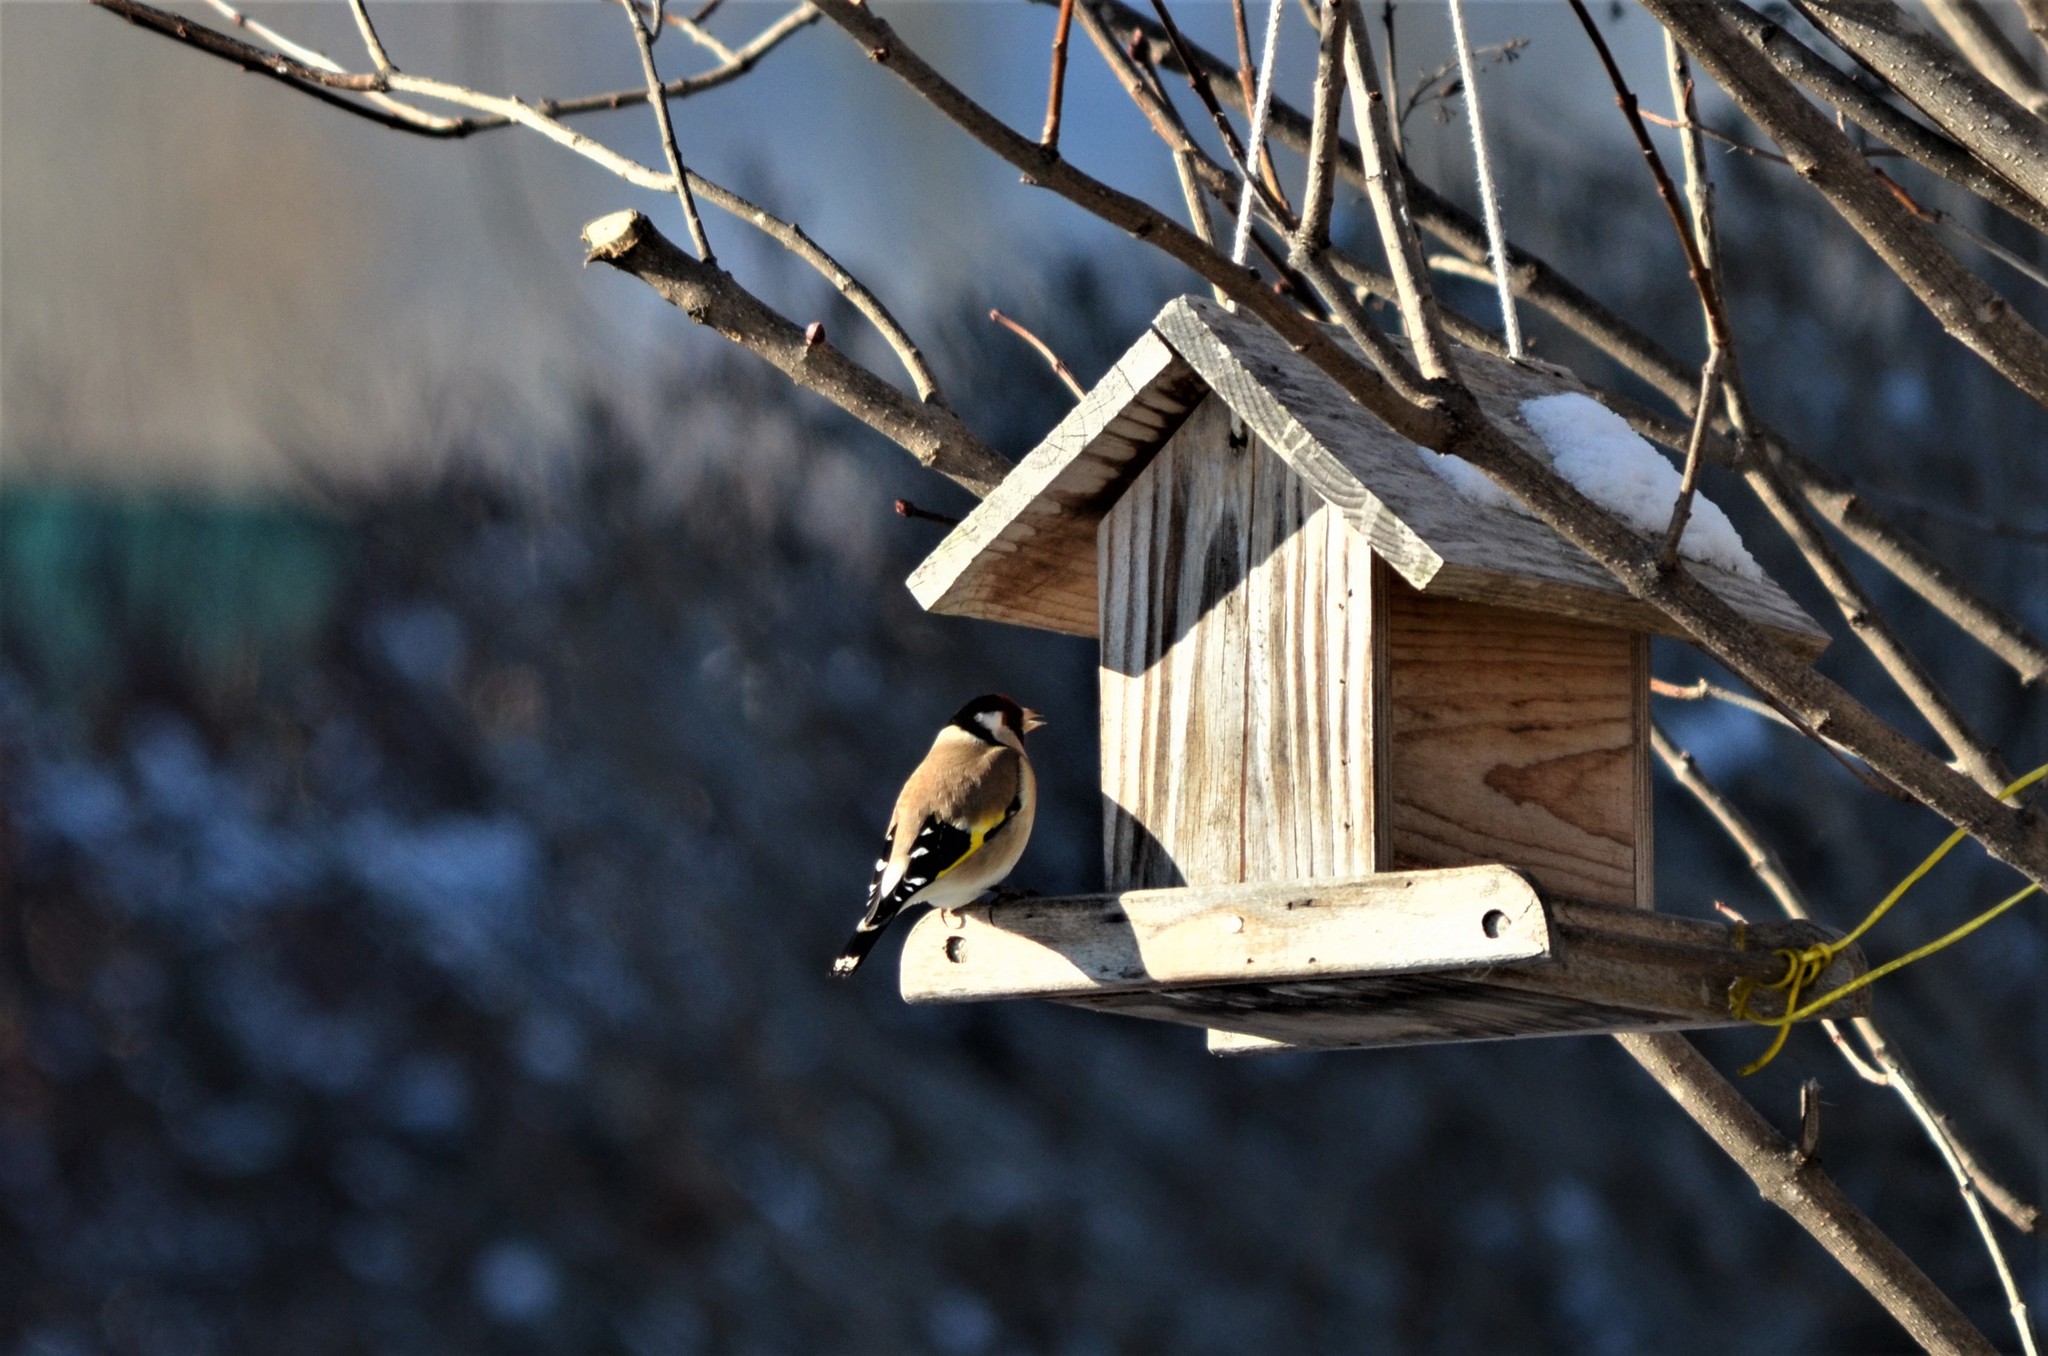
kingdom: Animalia
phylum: Chordata
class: Aves
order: Passeriformes
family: Fringillidae
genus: Carduelis
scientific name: Carduelis carduelis
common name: European goldfinch
